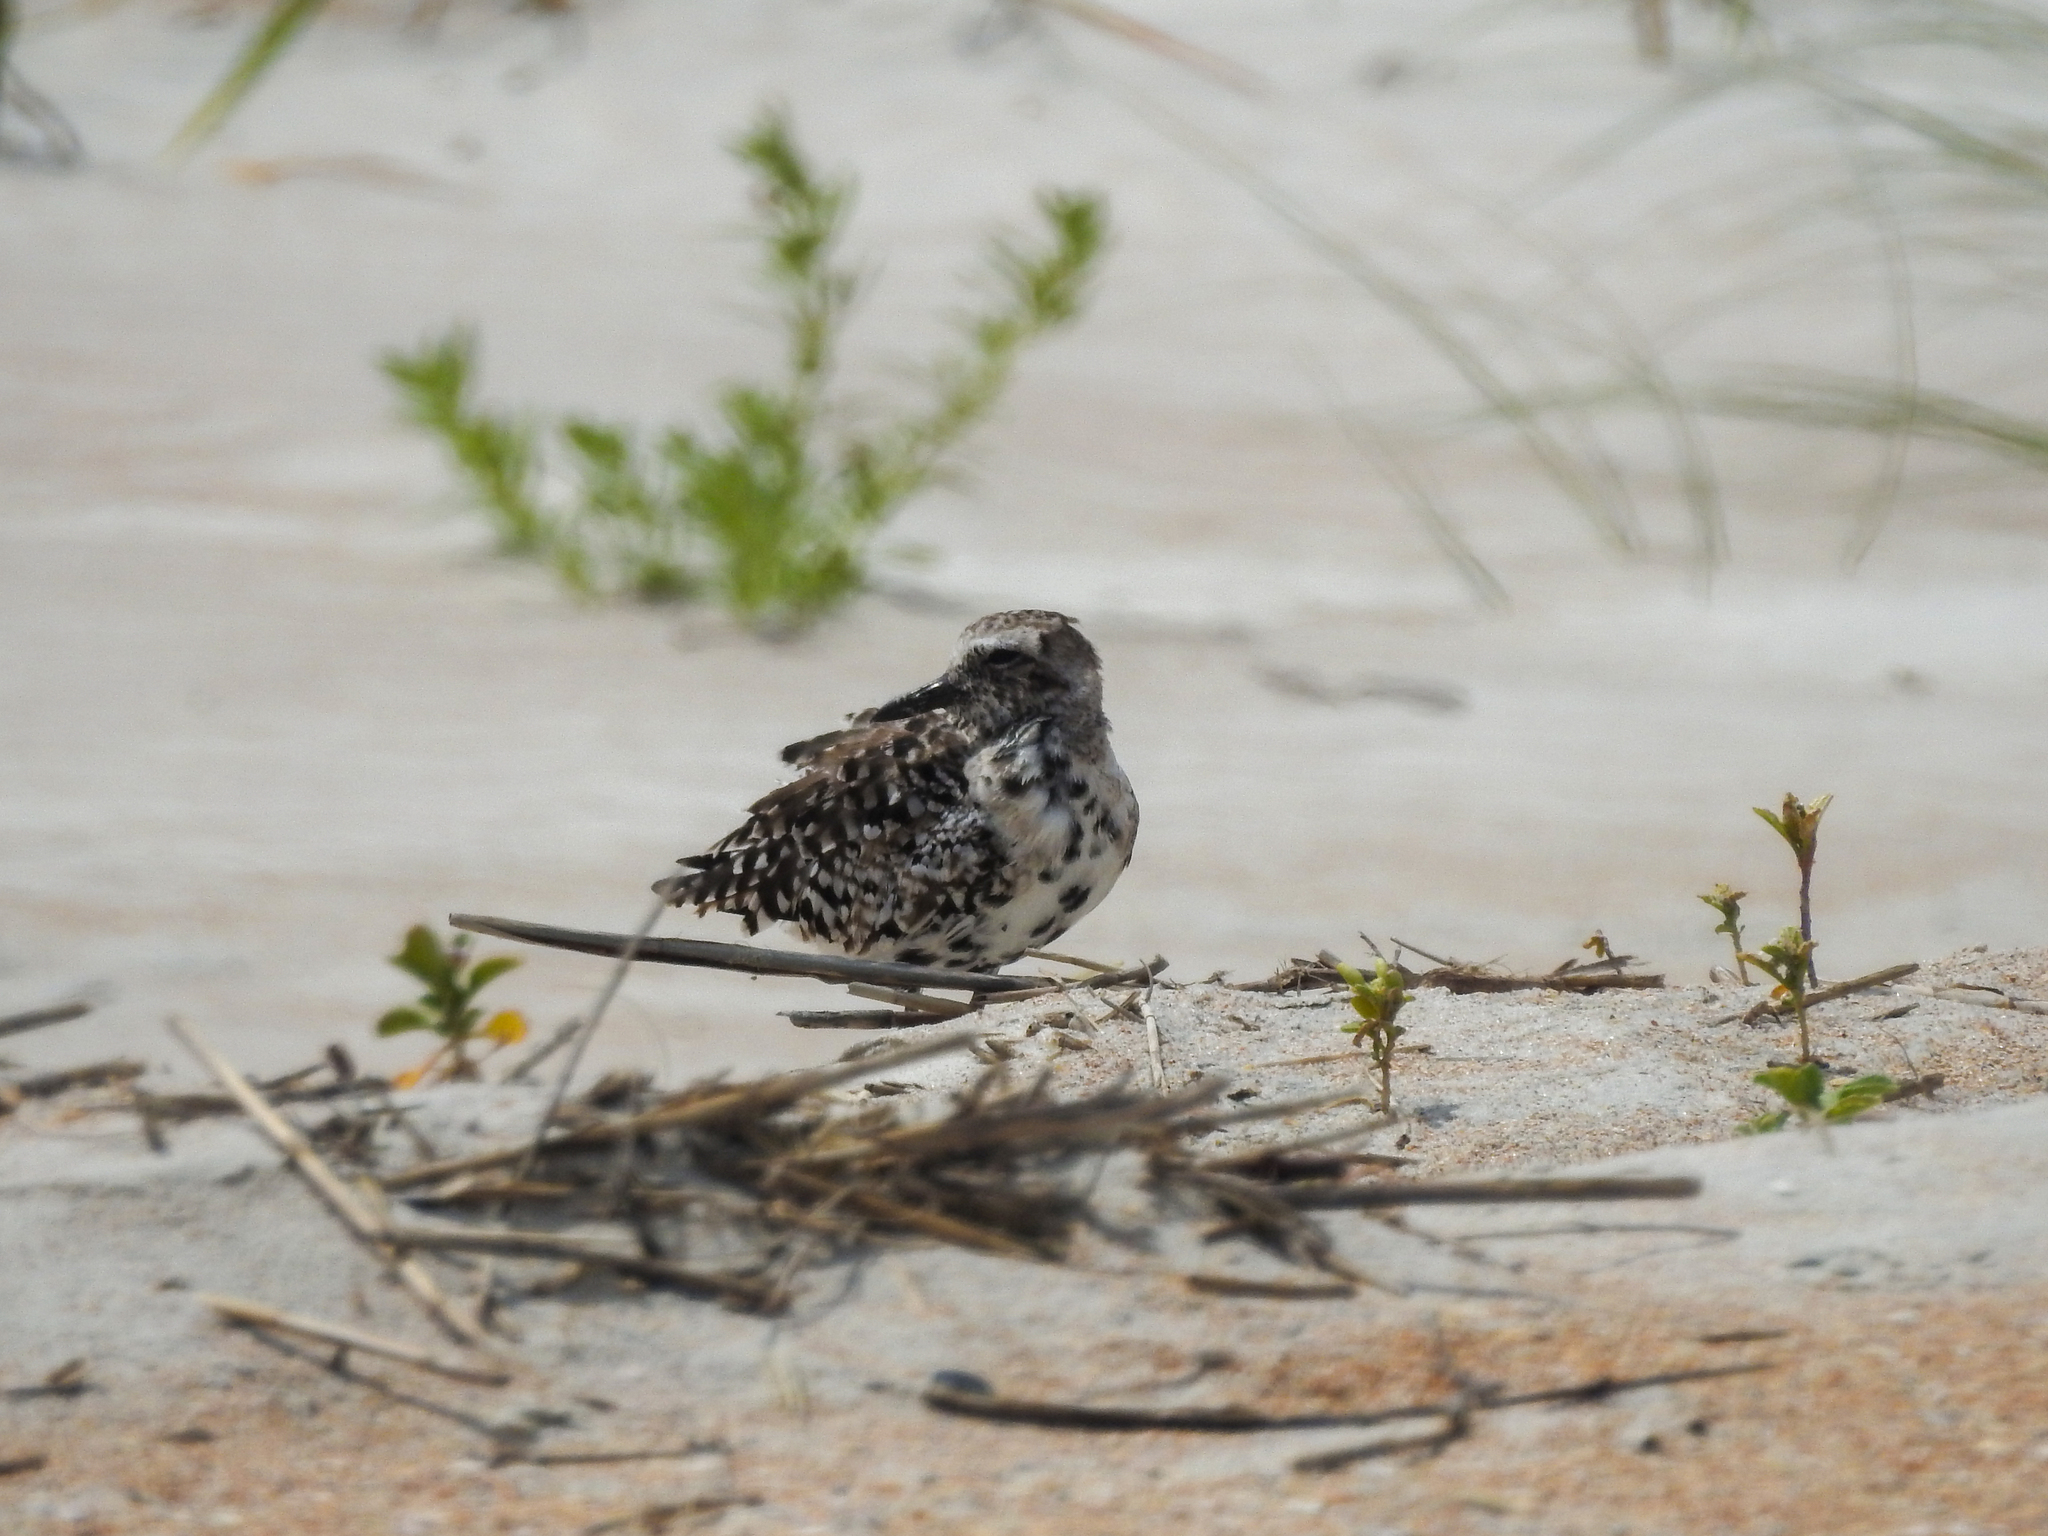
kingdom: Animalia
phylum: Chordata
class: Aves
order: Charadriiformes
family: Charadriidae
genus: Pluvialis
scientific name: Pluvialis squatarola
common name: Grey plover
